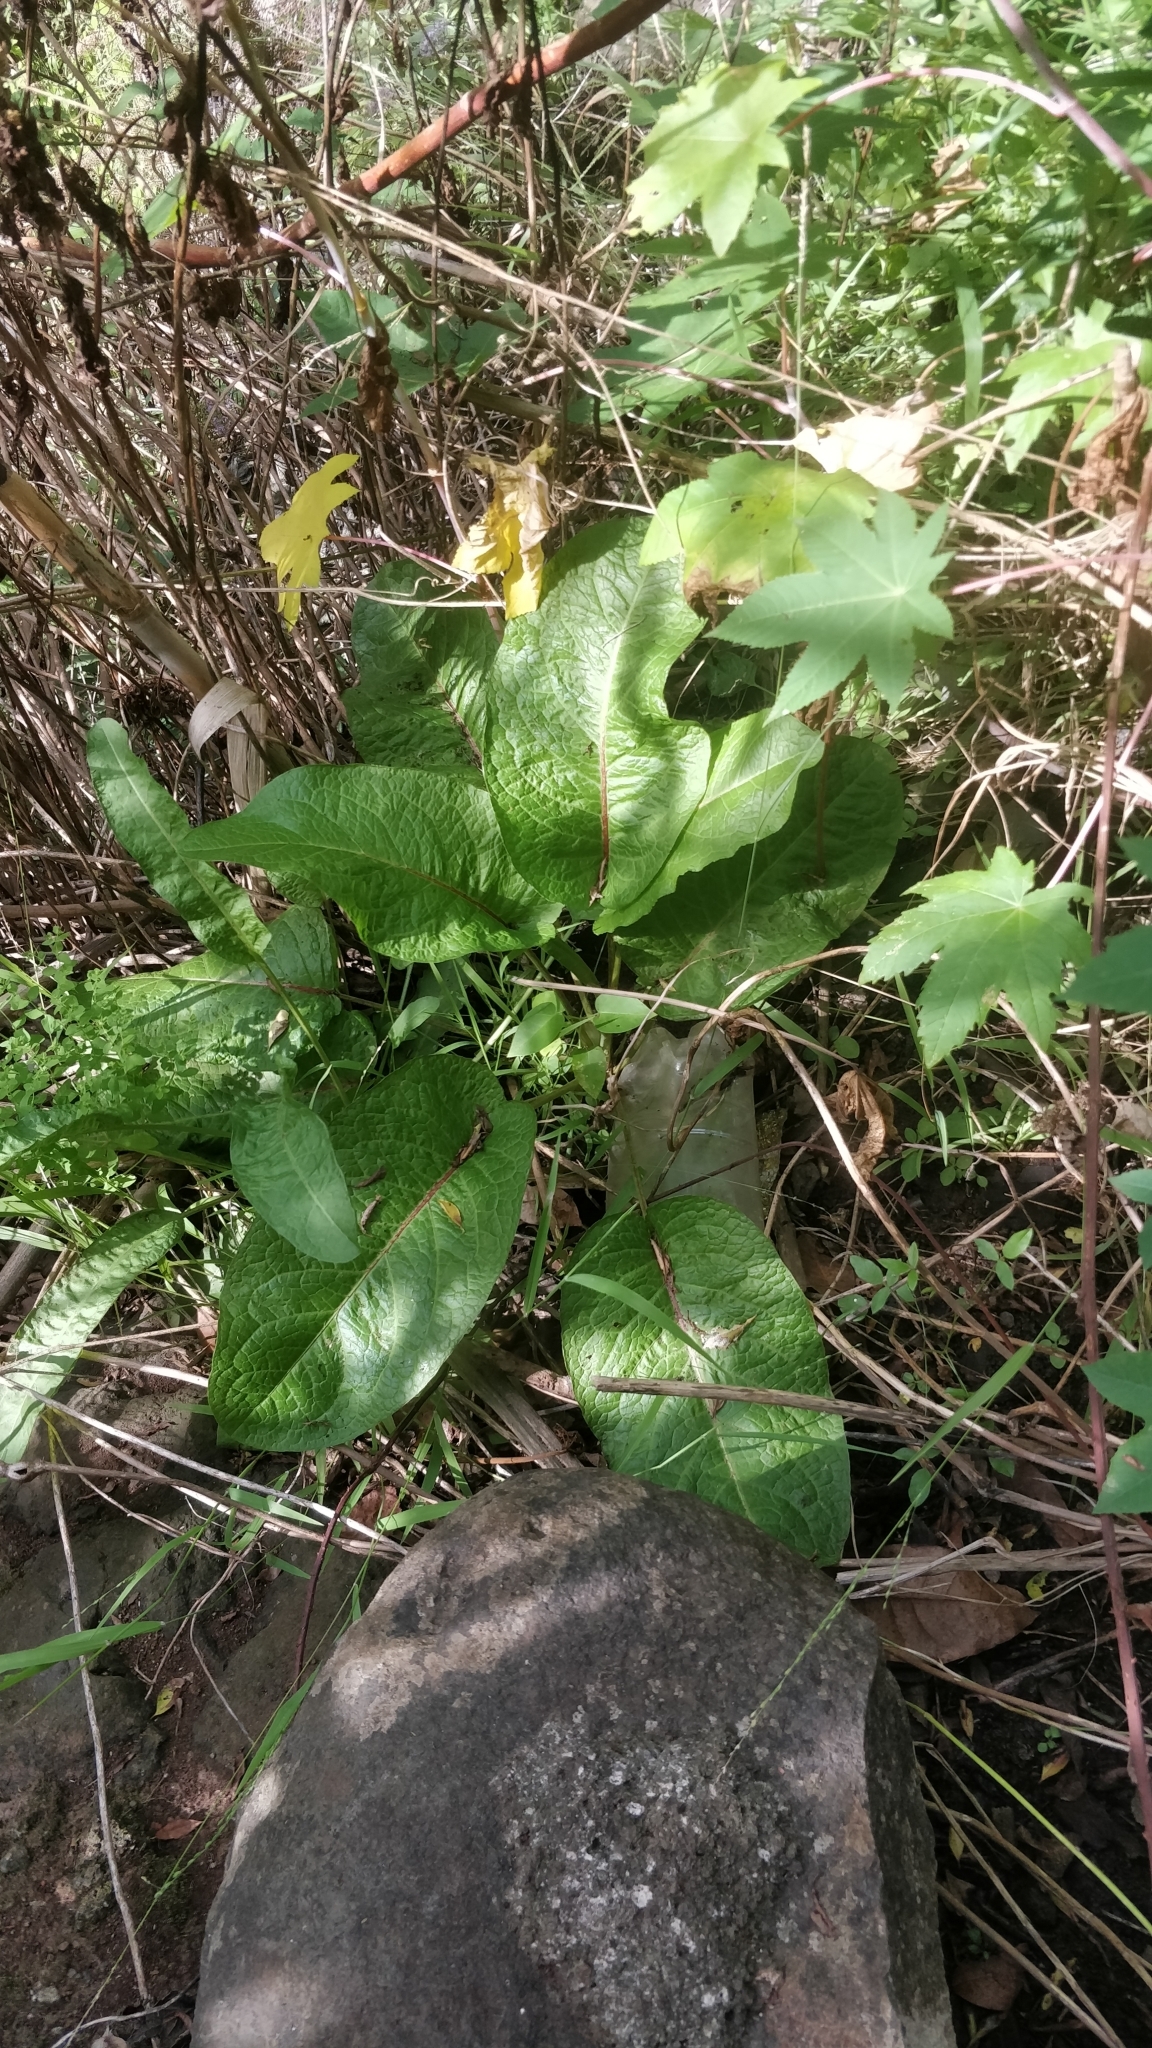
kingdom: Plantae
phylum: Tracheophyta
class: Magnoliopsida
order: Caryophyllales
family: Polygonaceae
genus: Rumex
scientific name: Rumex obtusifolius
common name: Bitter dock
